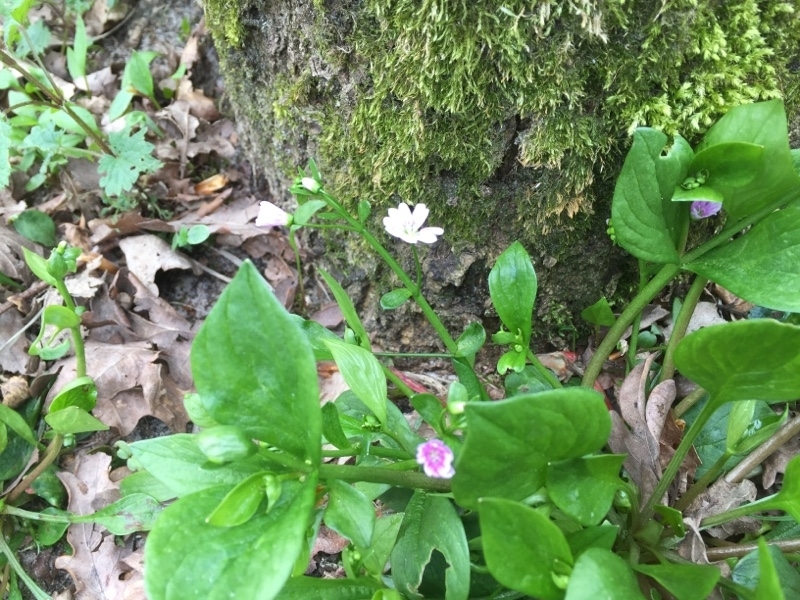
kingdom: Plantae
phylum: Tracheophyta
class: Magnoliopsida
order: Caryophyllales
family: Montiaceae
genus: Claytonia
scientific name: Claytonia sibirica
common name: Pink purslane
